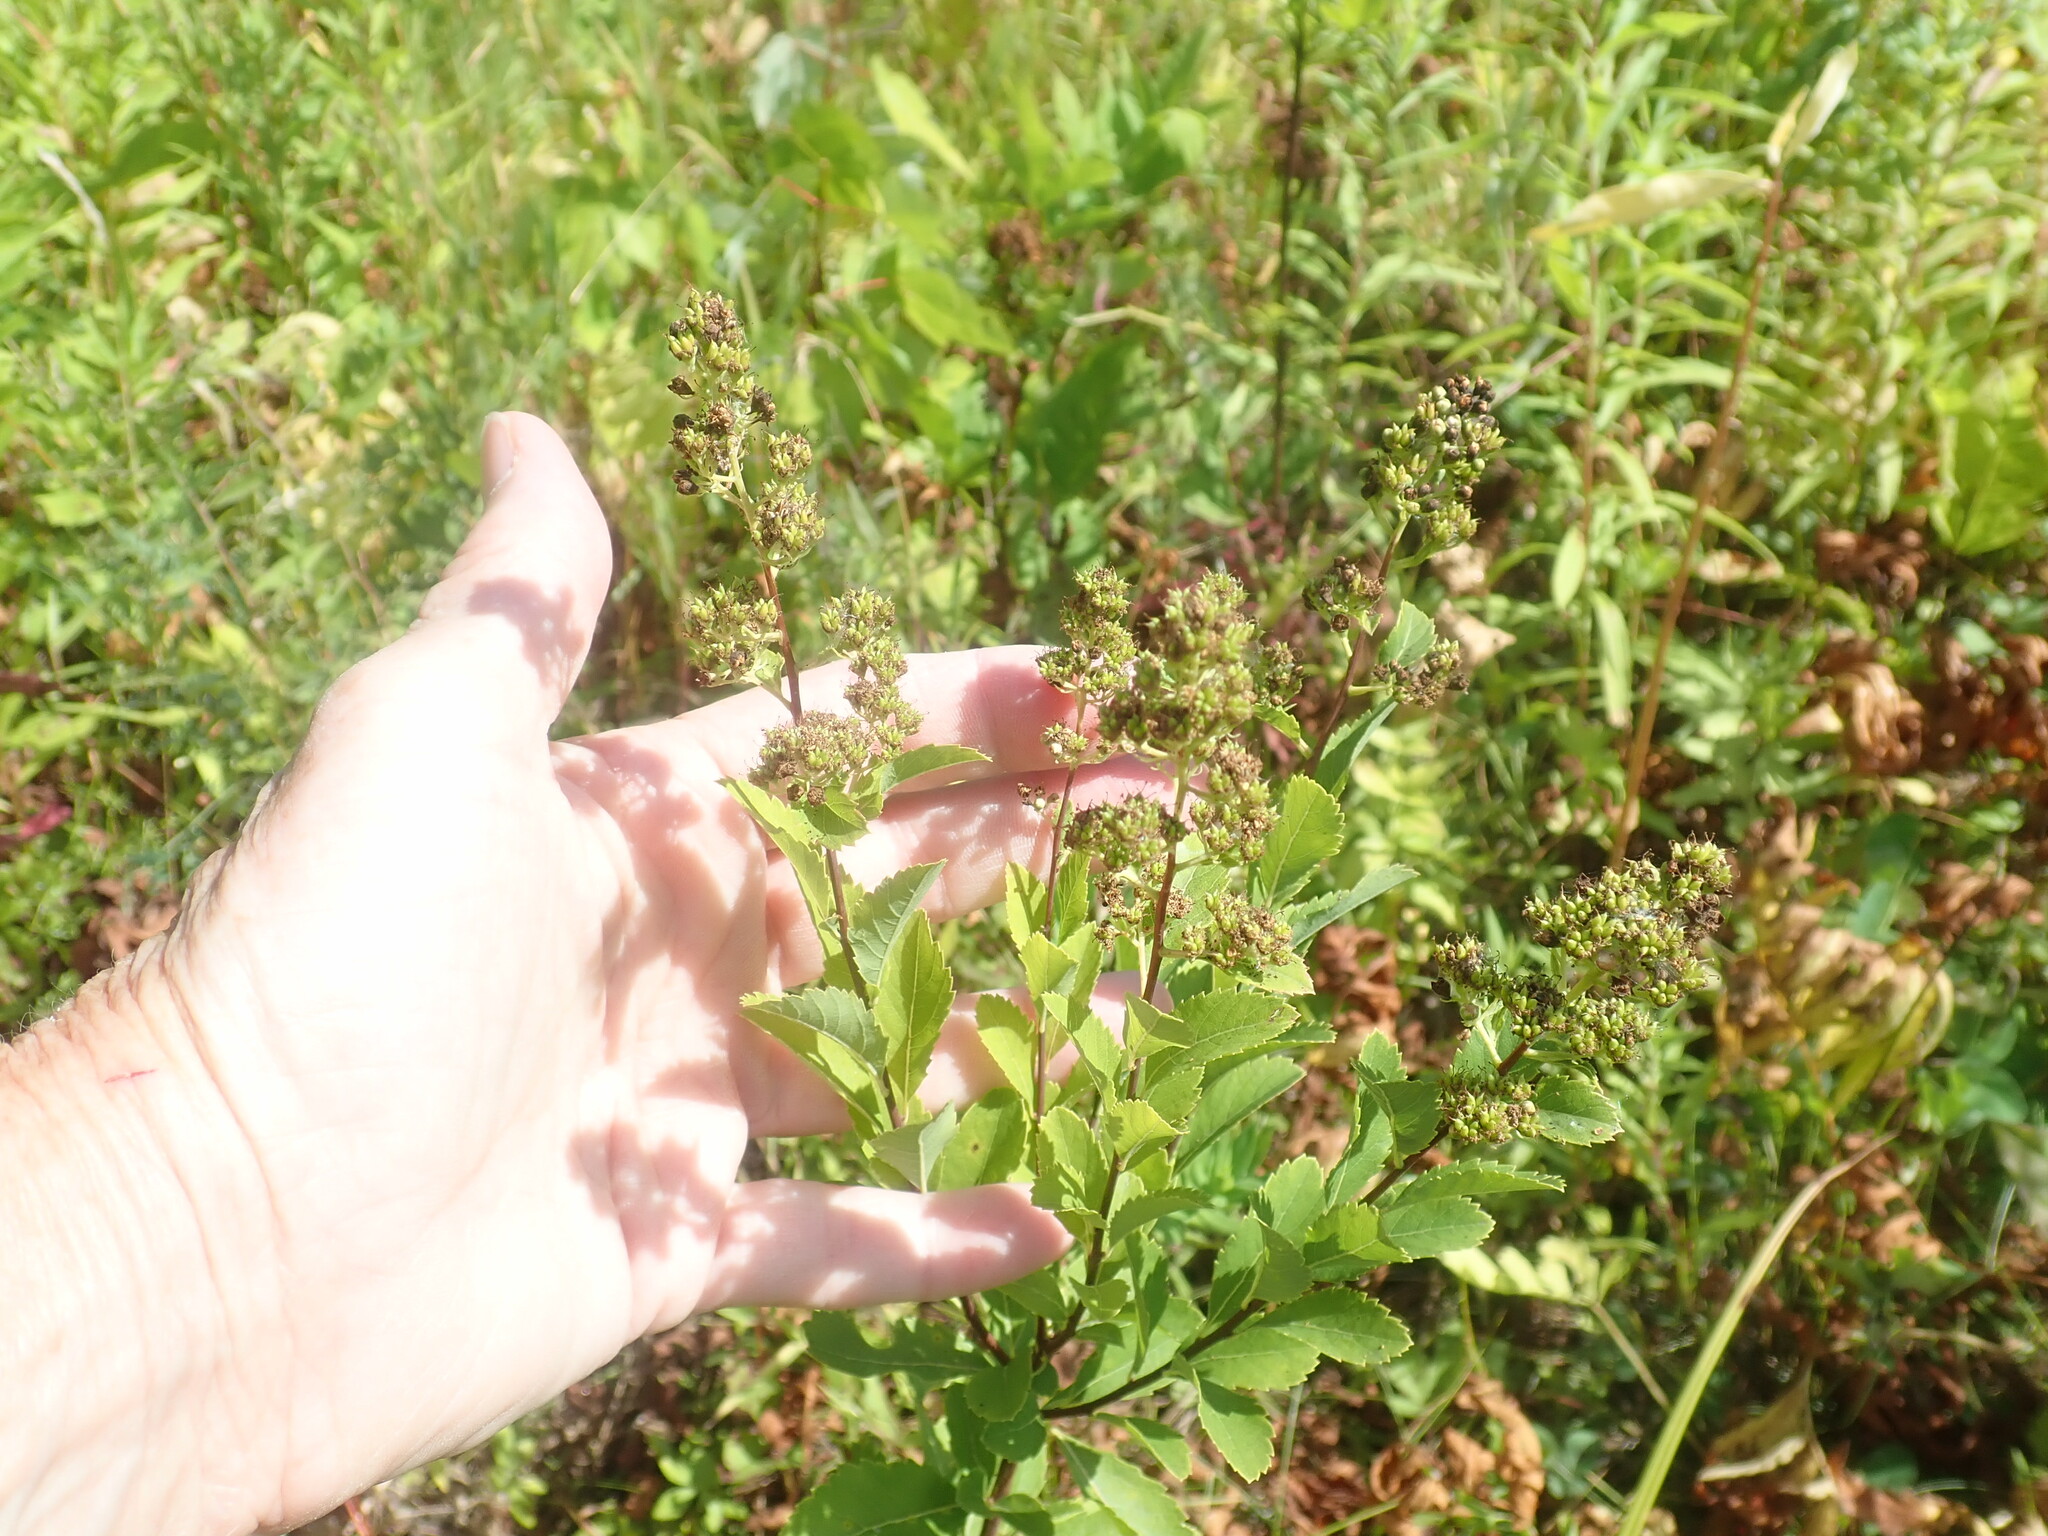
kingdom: Plantae
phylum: Tracheophyta
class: Magnoliopsida
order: Rosales
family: Rosaceae
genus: Spiraea
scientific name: Spiraea alba
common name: Pale bridewort
